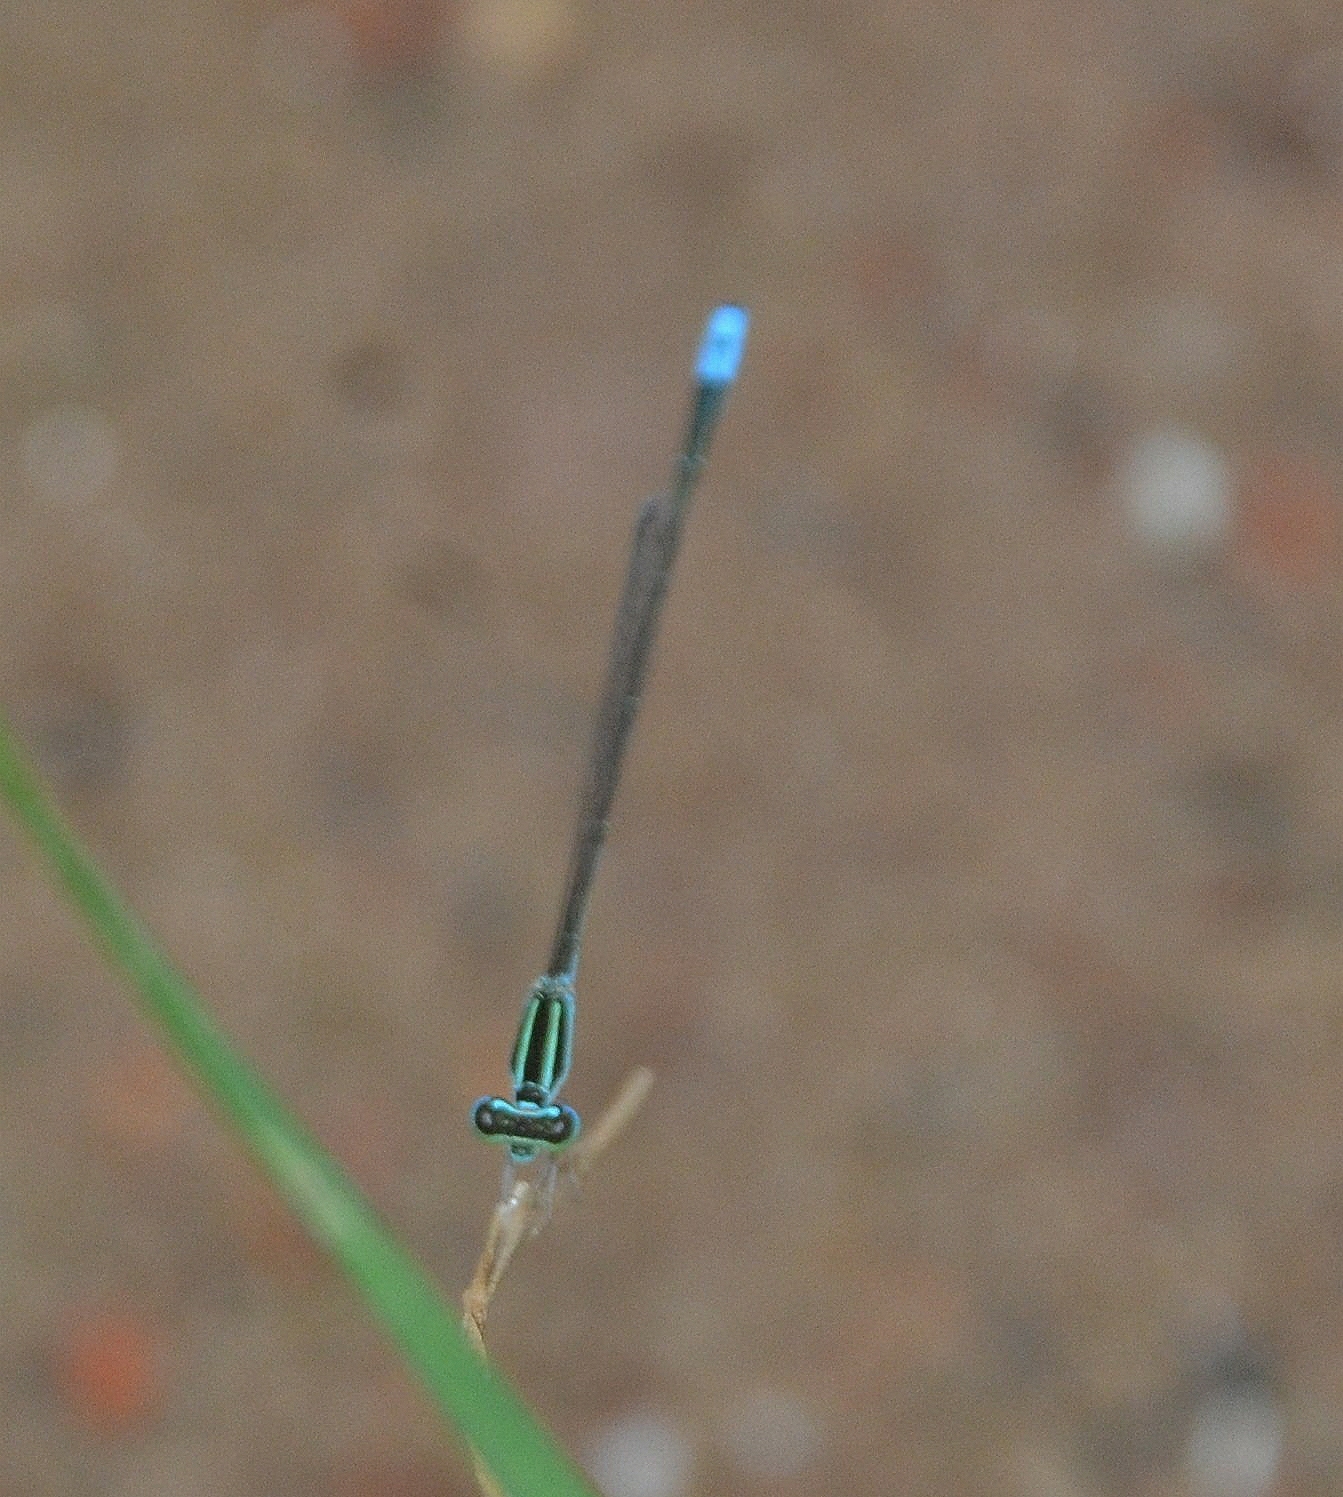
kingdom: Animalia
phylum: Arthropoda
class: Insecta
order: Odonata
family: Coenagrionidae
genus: Aciagrion
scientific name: Aciagrion occidentale
